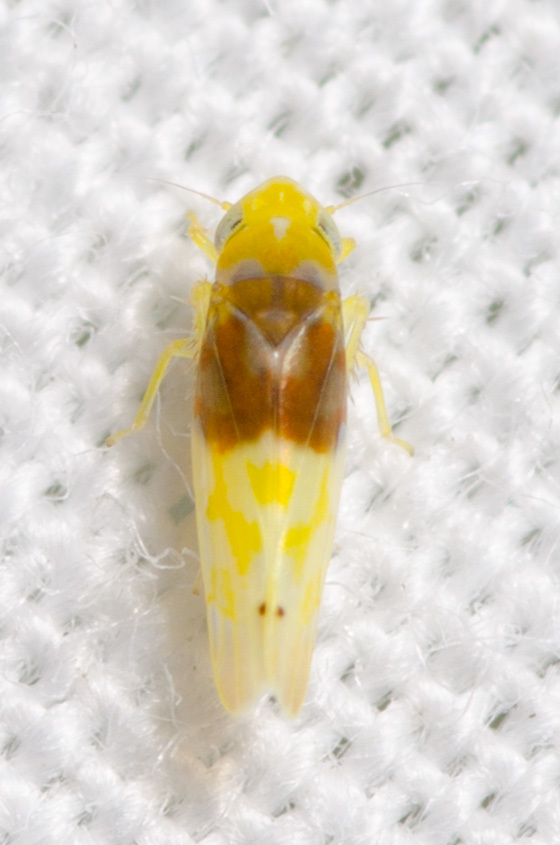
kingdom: Animalia
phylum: Arthropoda
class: Insecta
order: Hemiptera
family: Cicadellidae
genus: Eratoneura
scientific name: Eratoneura basilaris
